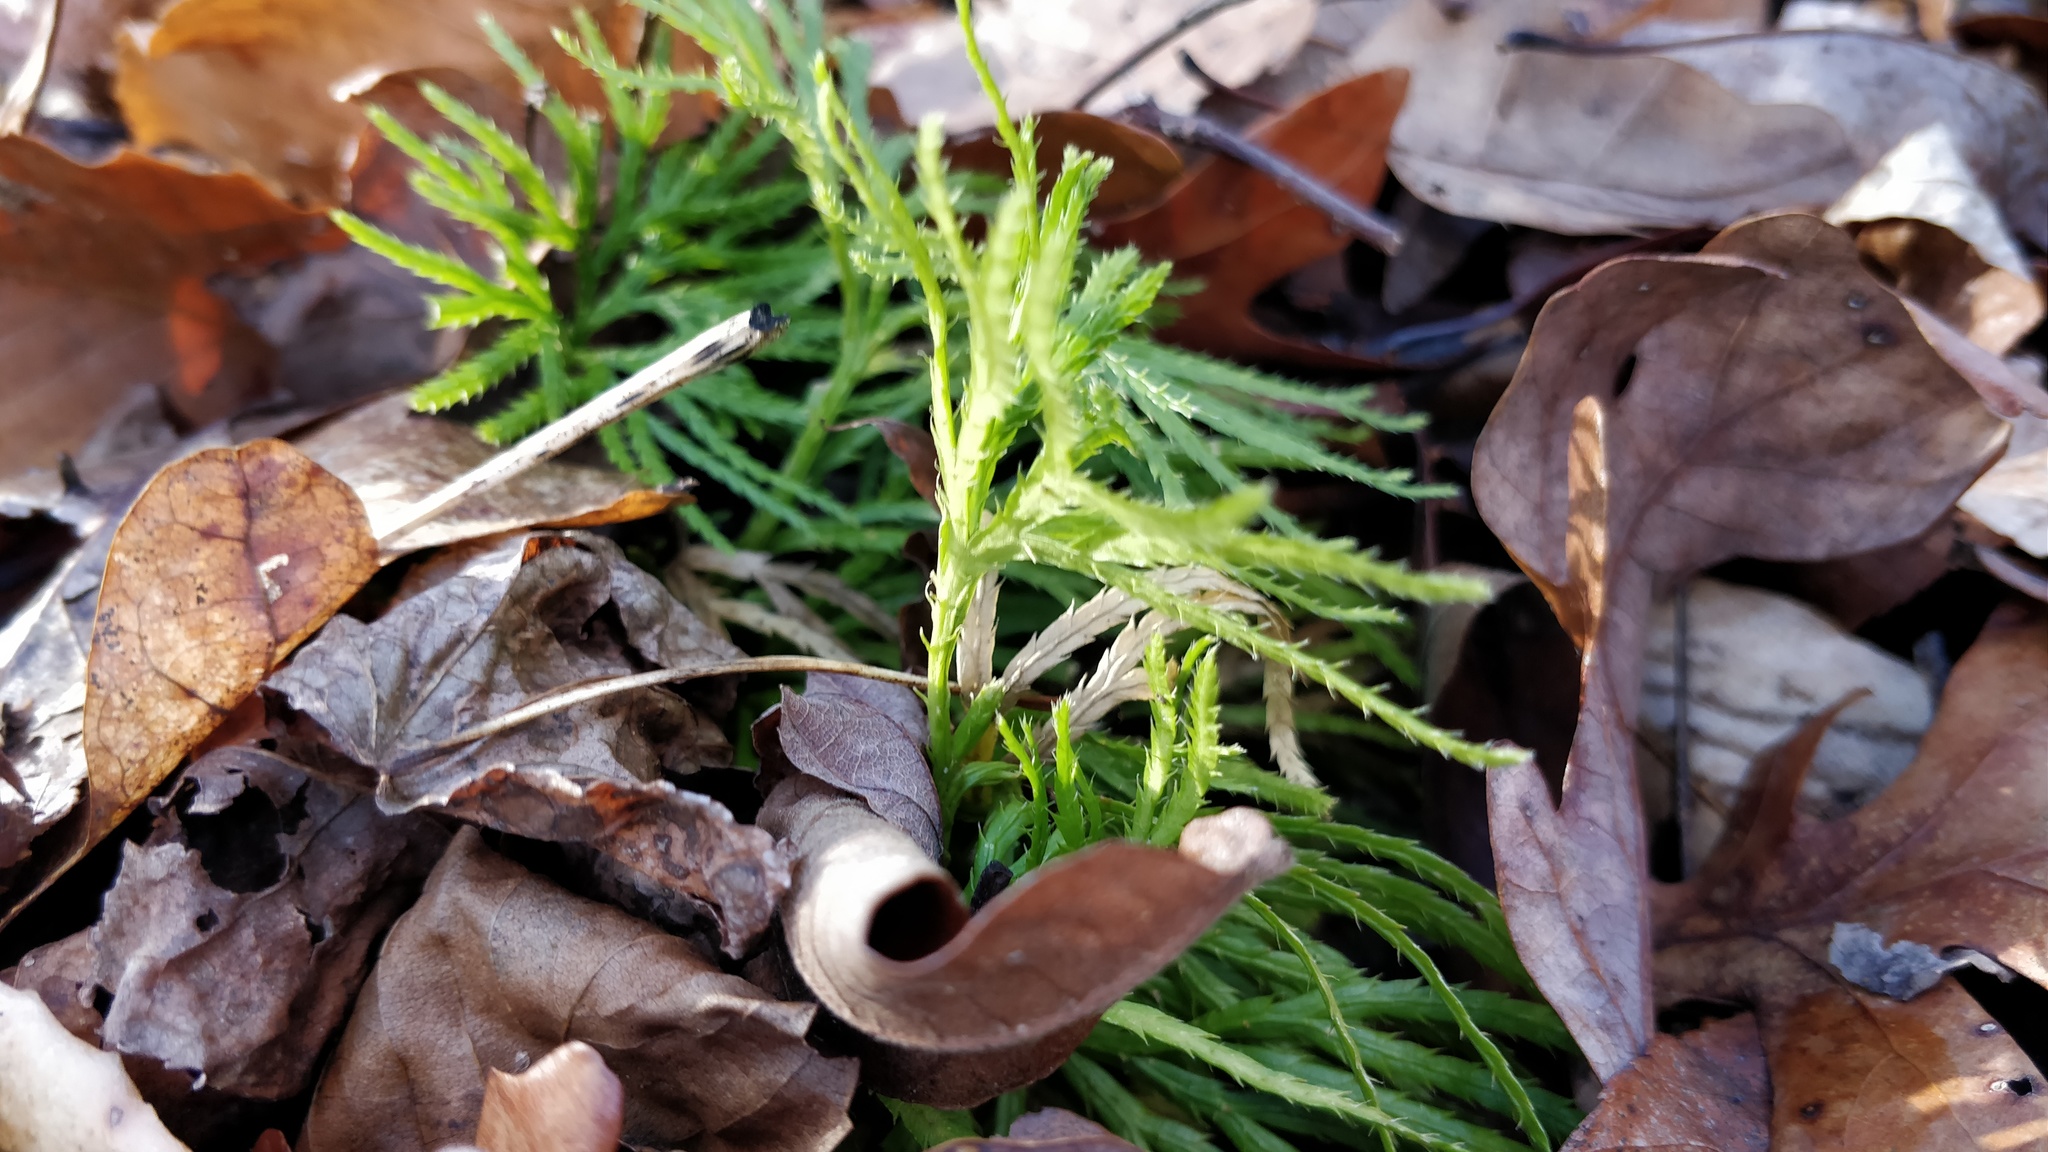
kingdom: Plantae
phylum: Tracheophyta
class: Lycopodiopsida
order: Lycopodiales
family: Lycopodiaceae
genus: Diphasiastrum
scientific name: Diphasiastrum digitatum
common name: Southern running-pine
